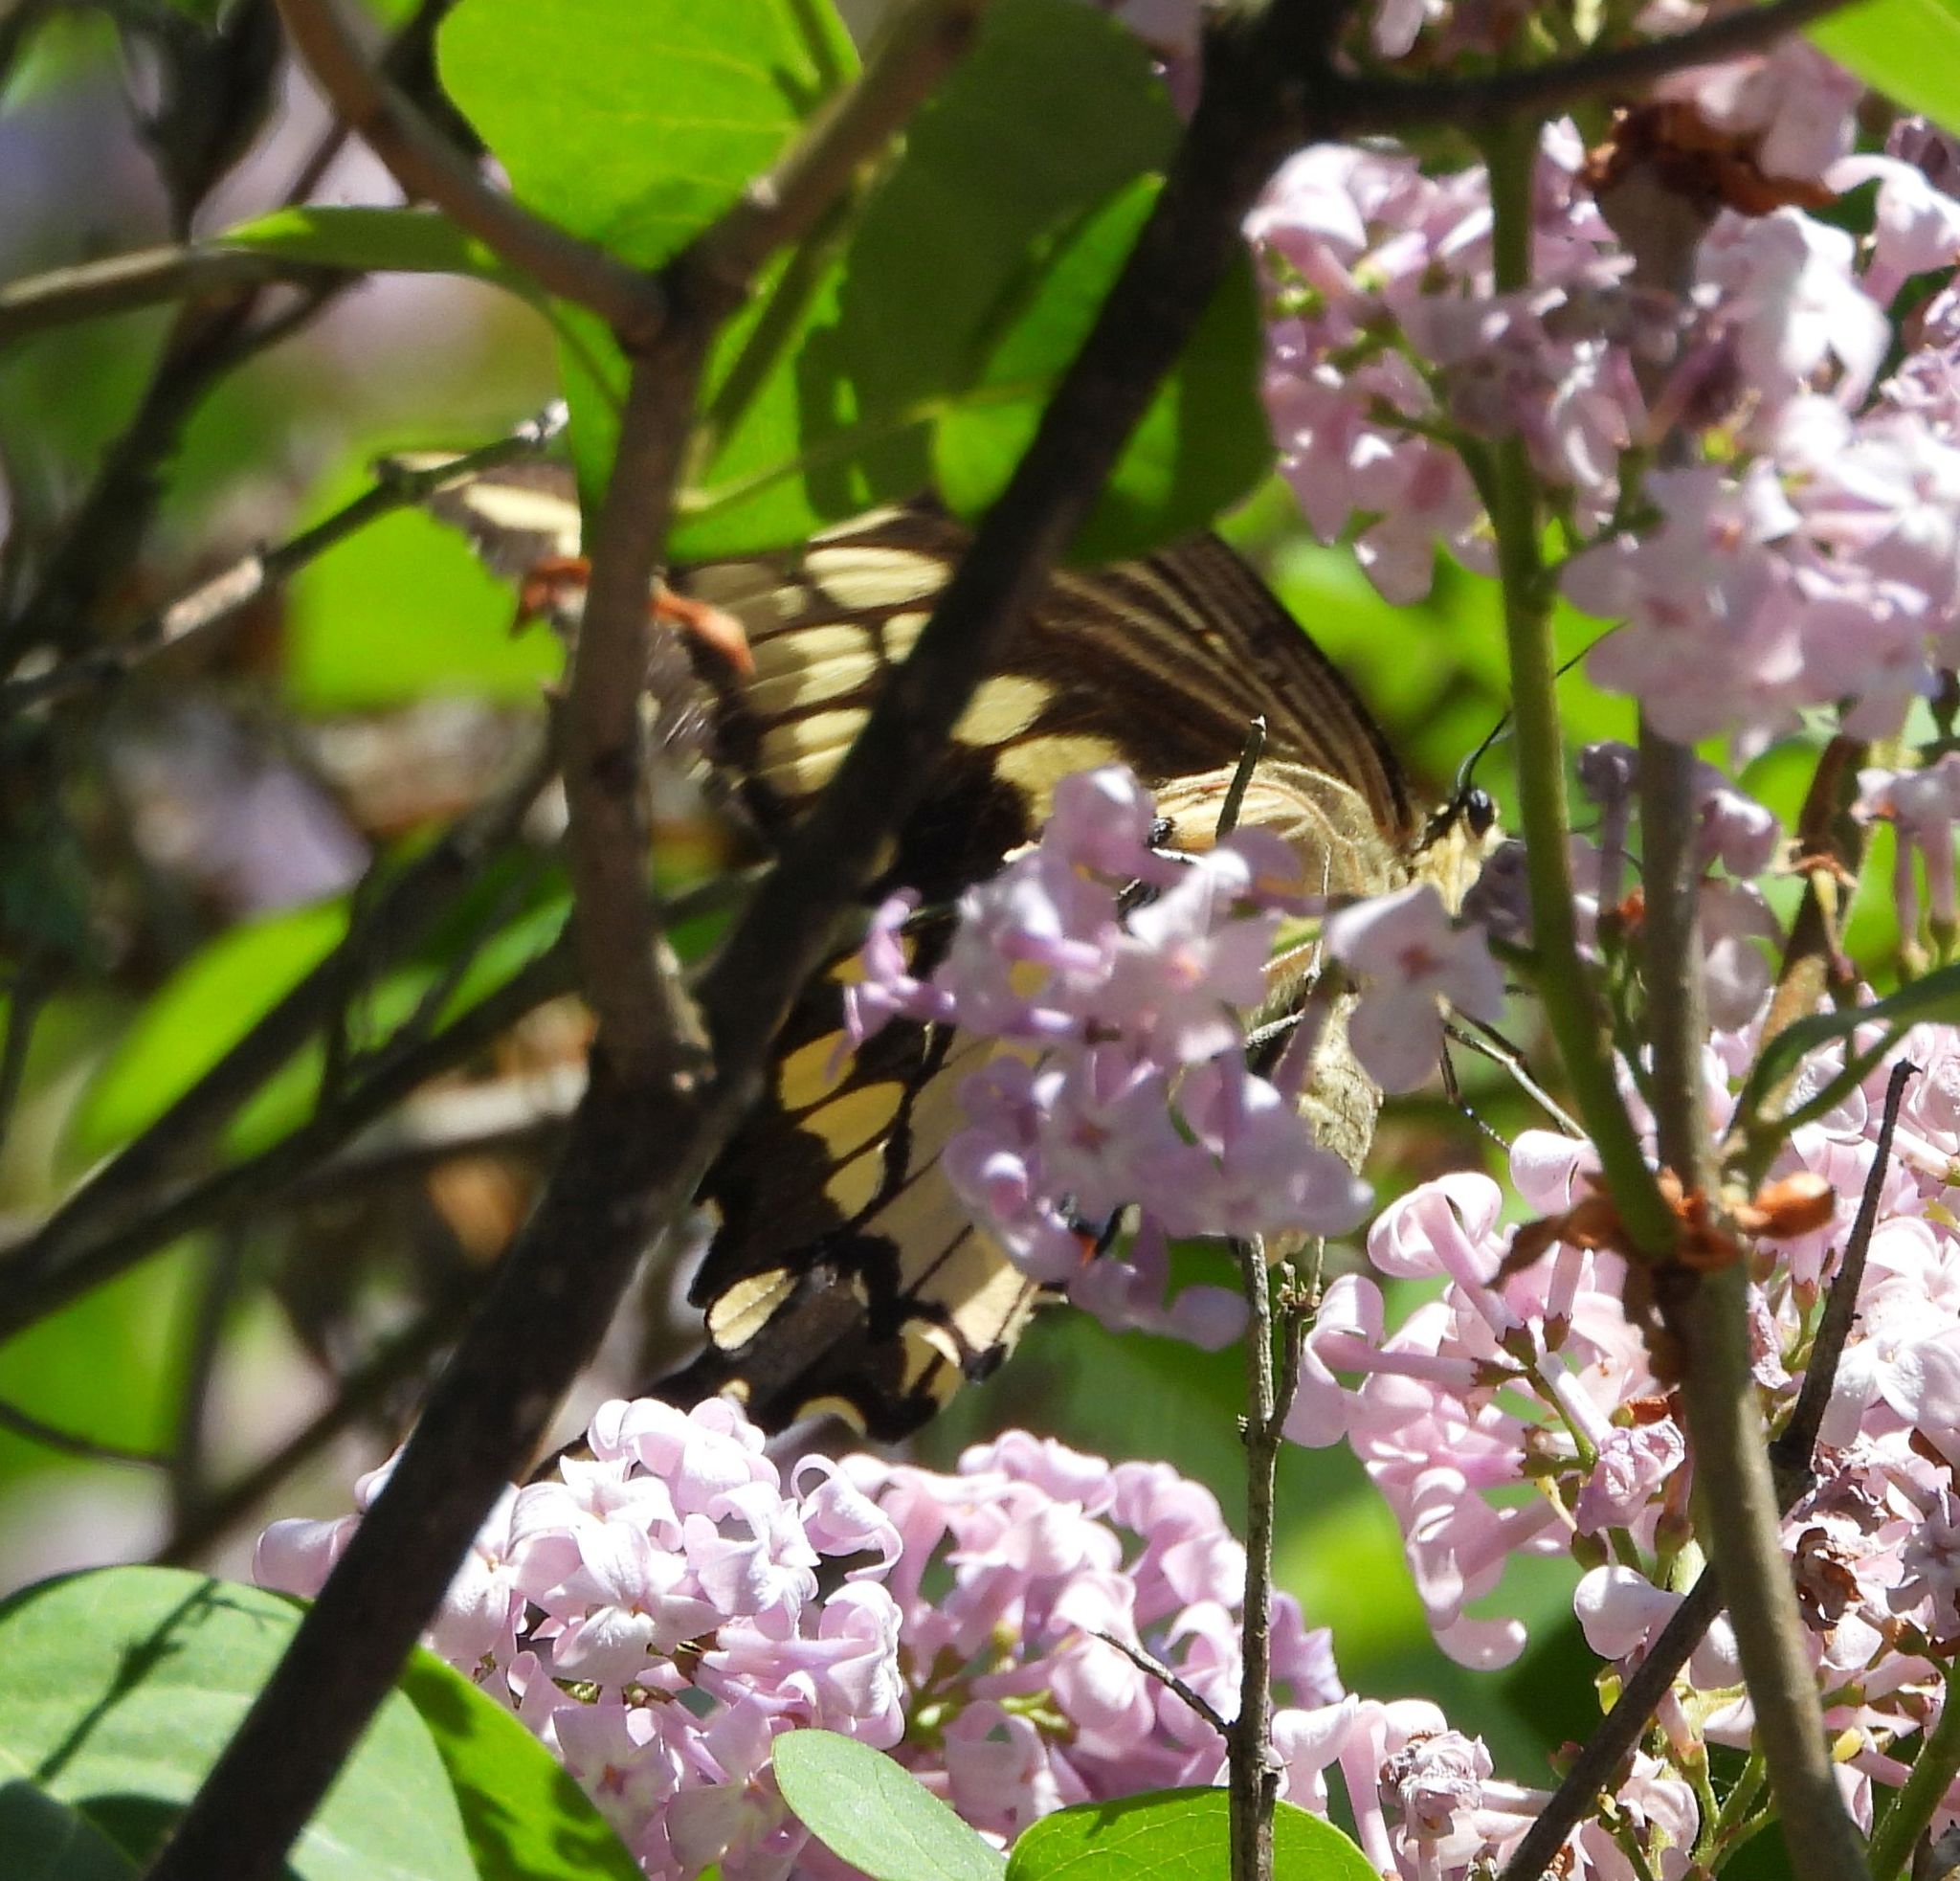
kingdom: Animalia
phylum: Arthropoda
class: Insecta
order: Lepidoptera
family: Papilionidae
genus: Papilio
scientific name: Papilio cresphontes
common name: Giant swallowtail
